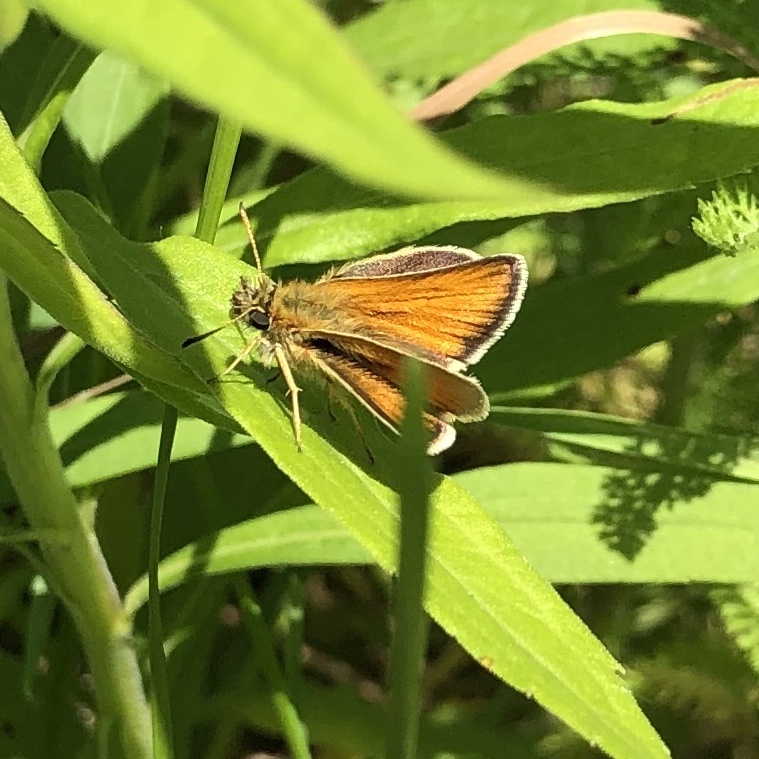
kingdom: Animalia
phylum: Arthropoda
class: Insecta
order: Lepidoptera
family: Hesperiidae
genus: Thymelicus
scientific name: Thymelicus lineola
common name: Essex skipper
